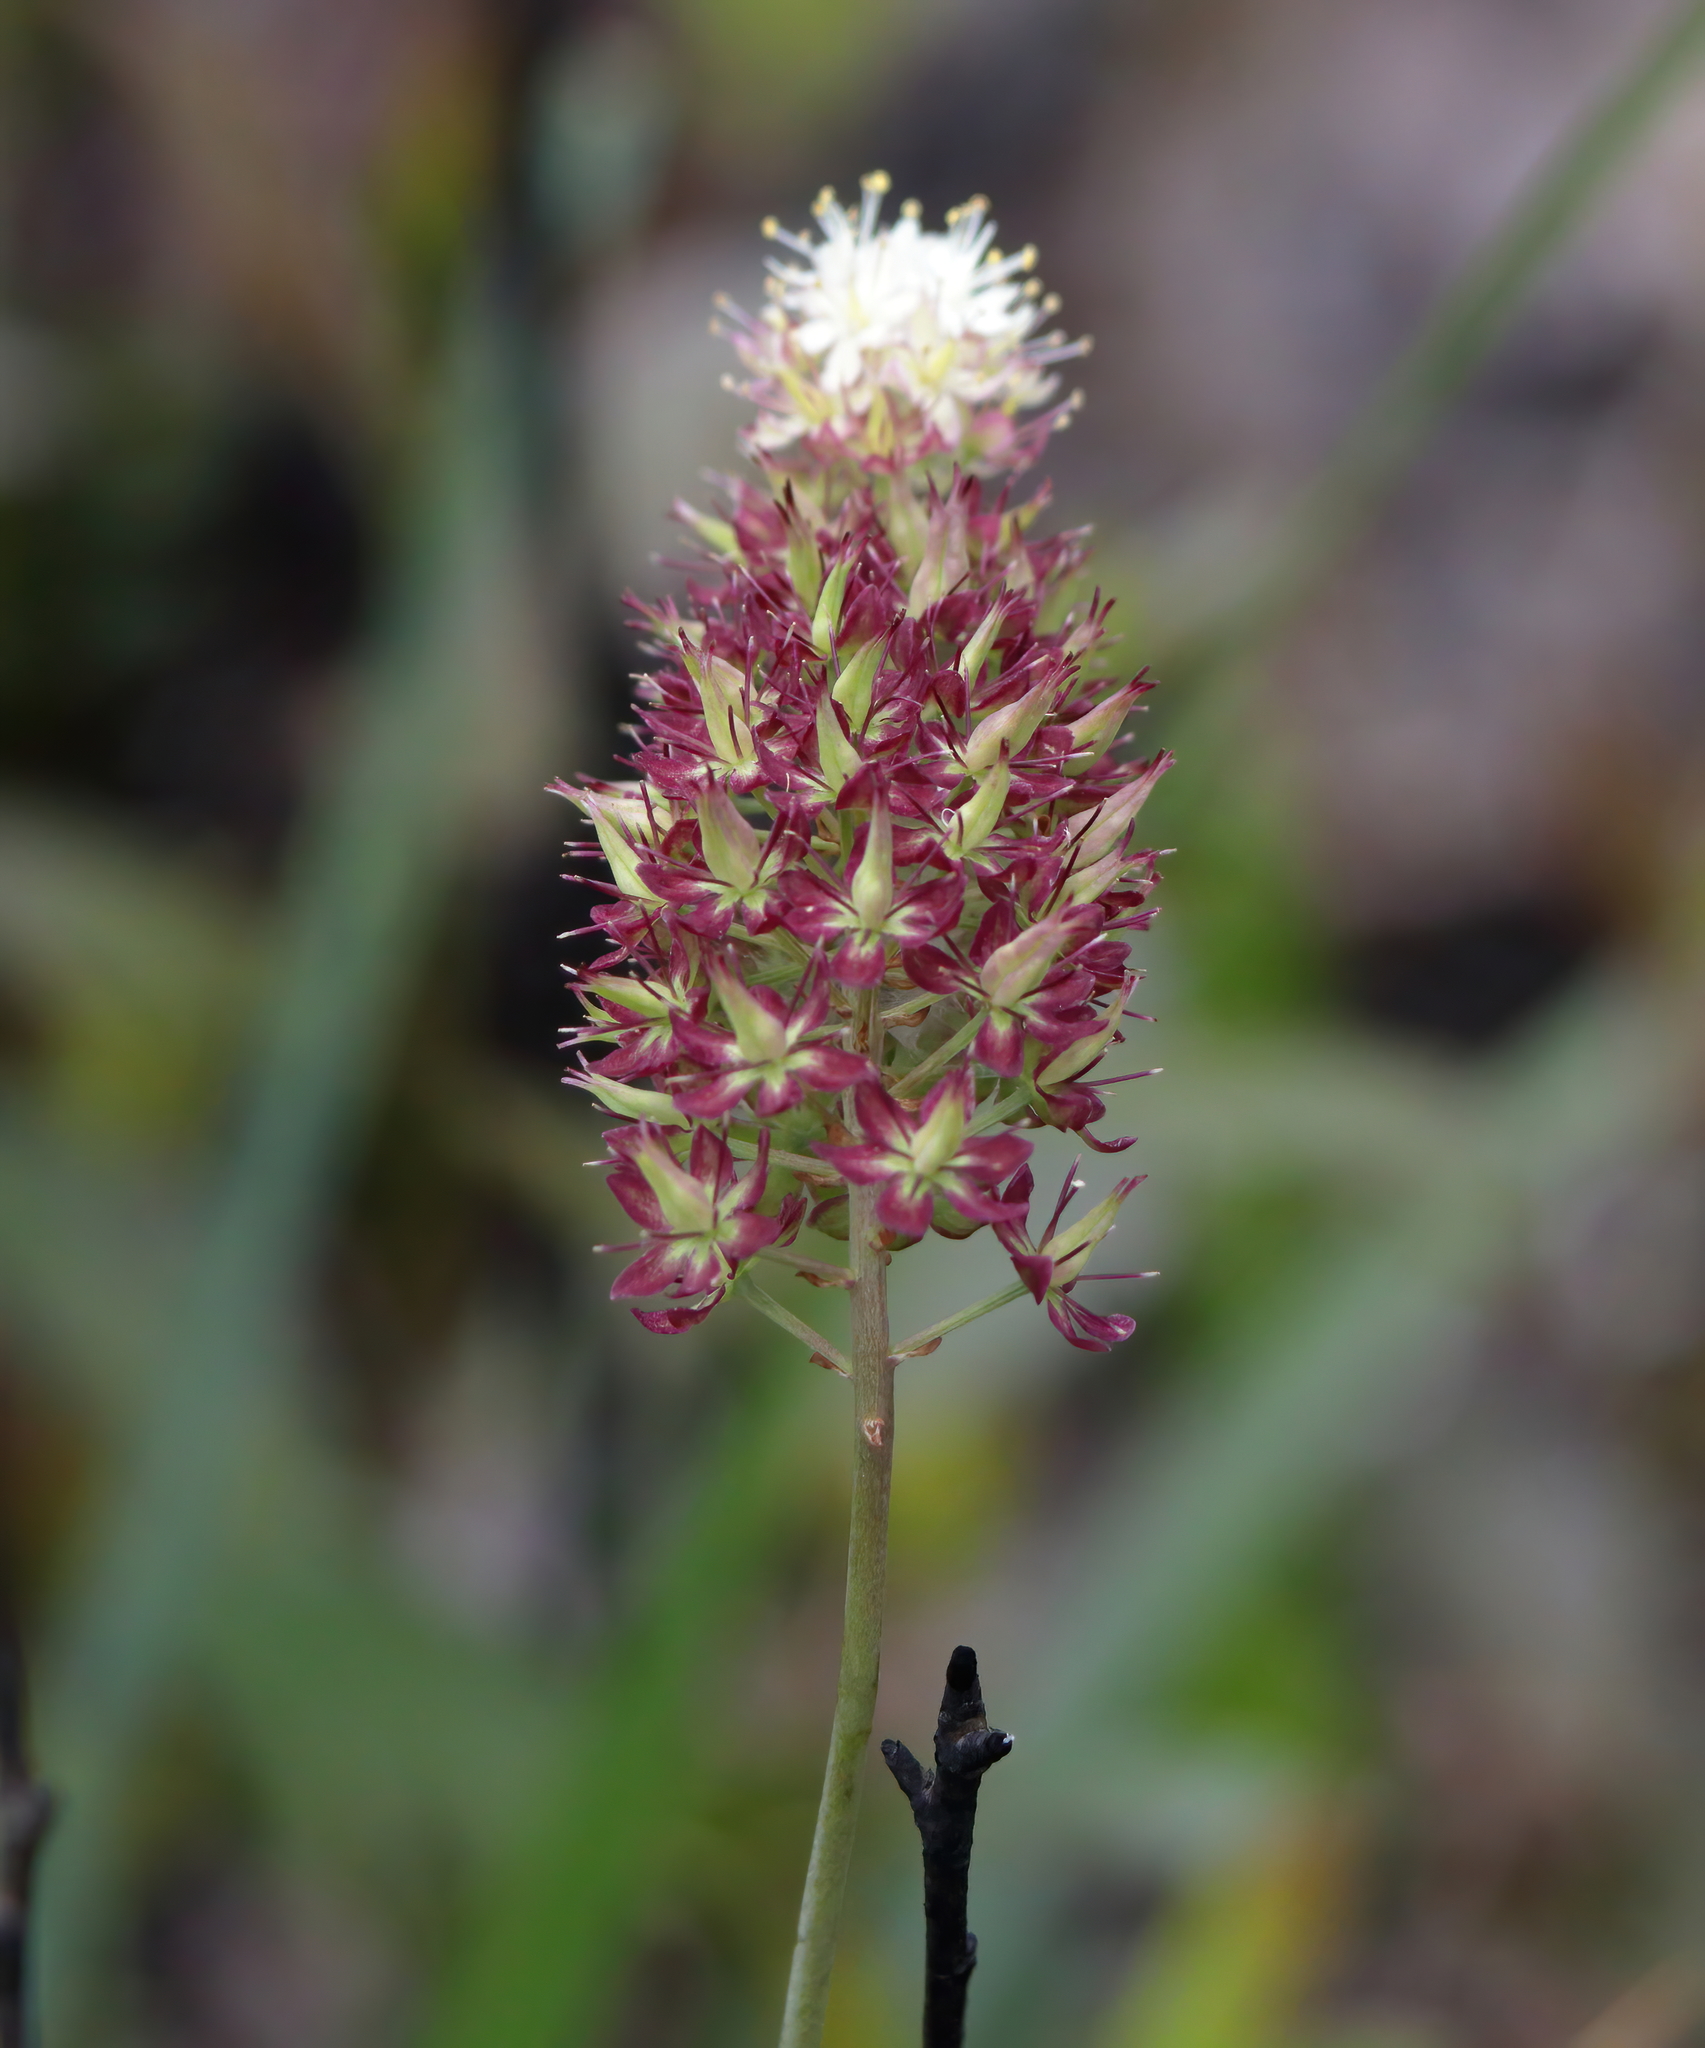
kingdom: Plantae
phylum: Tracheophyta
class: Liliopsida
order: Liliales
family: Melanthiaceae
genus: Stenanthium
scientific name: Stenanthium densum
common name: Crow-poison
